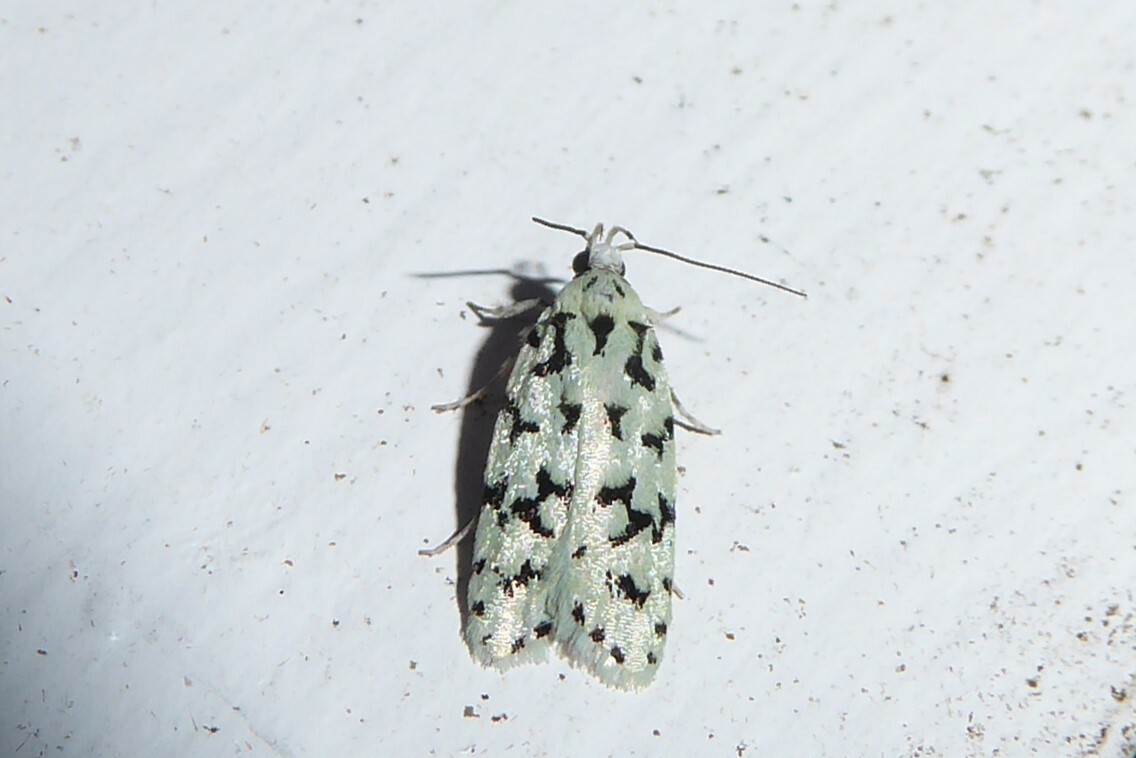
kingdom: Animalia
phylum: Arthropoda
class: Insecta
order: Lepidoptera
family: Oecophoridae
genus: Izatha
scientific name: Izatha huttoni
